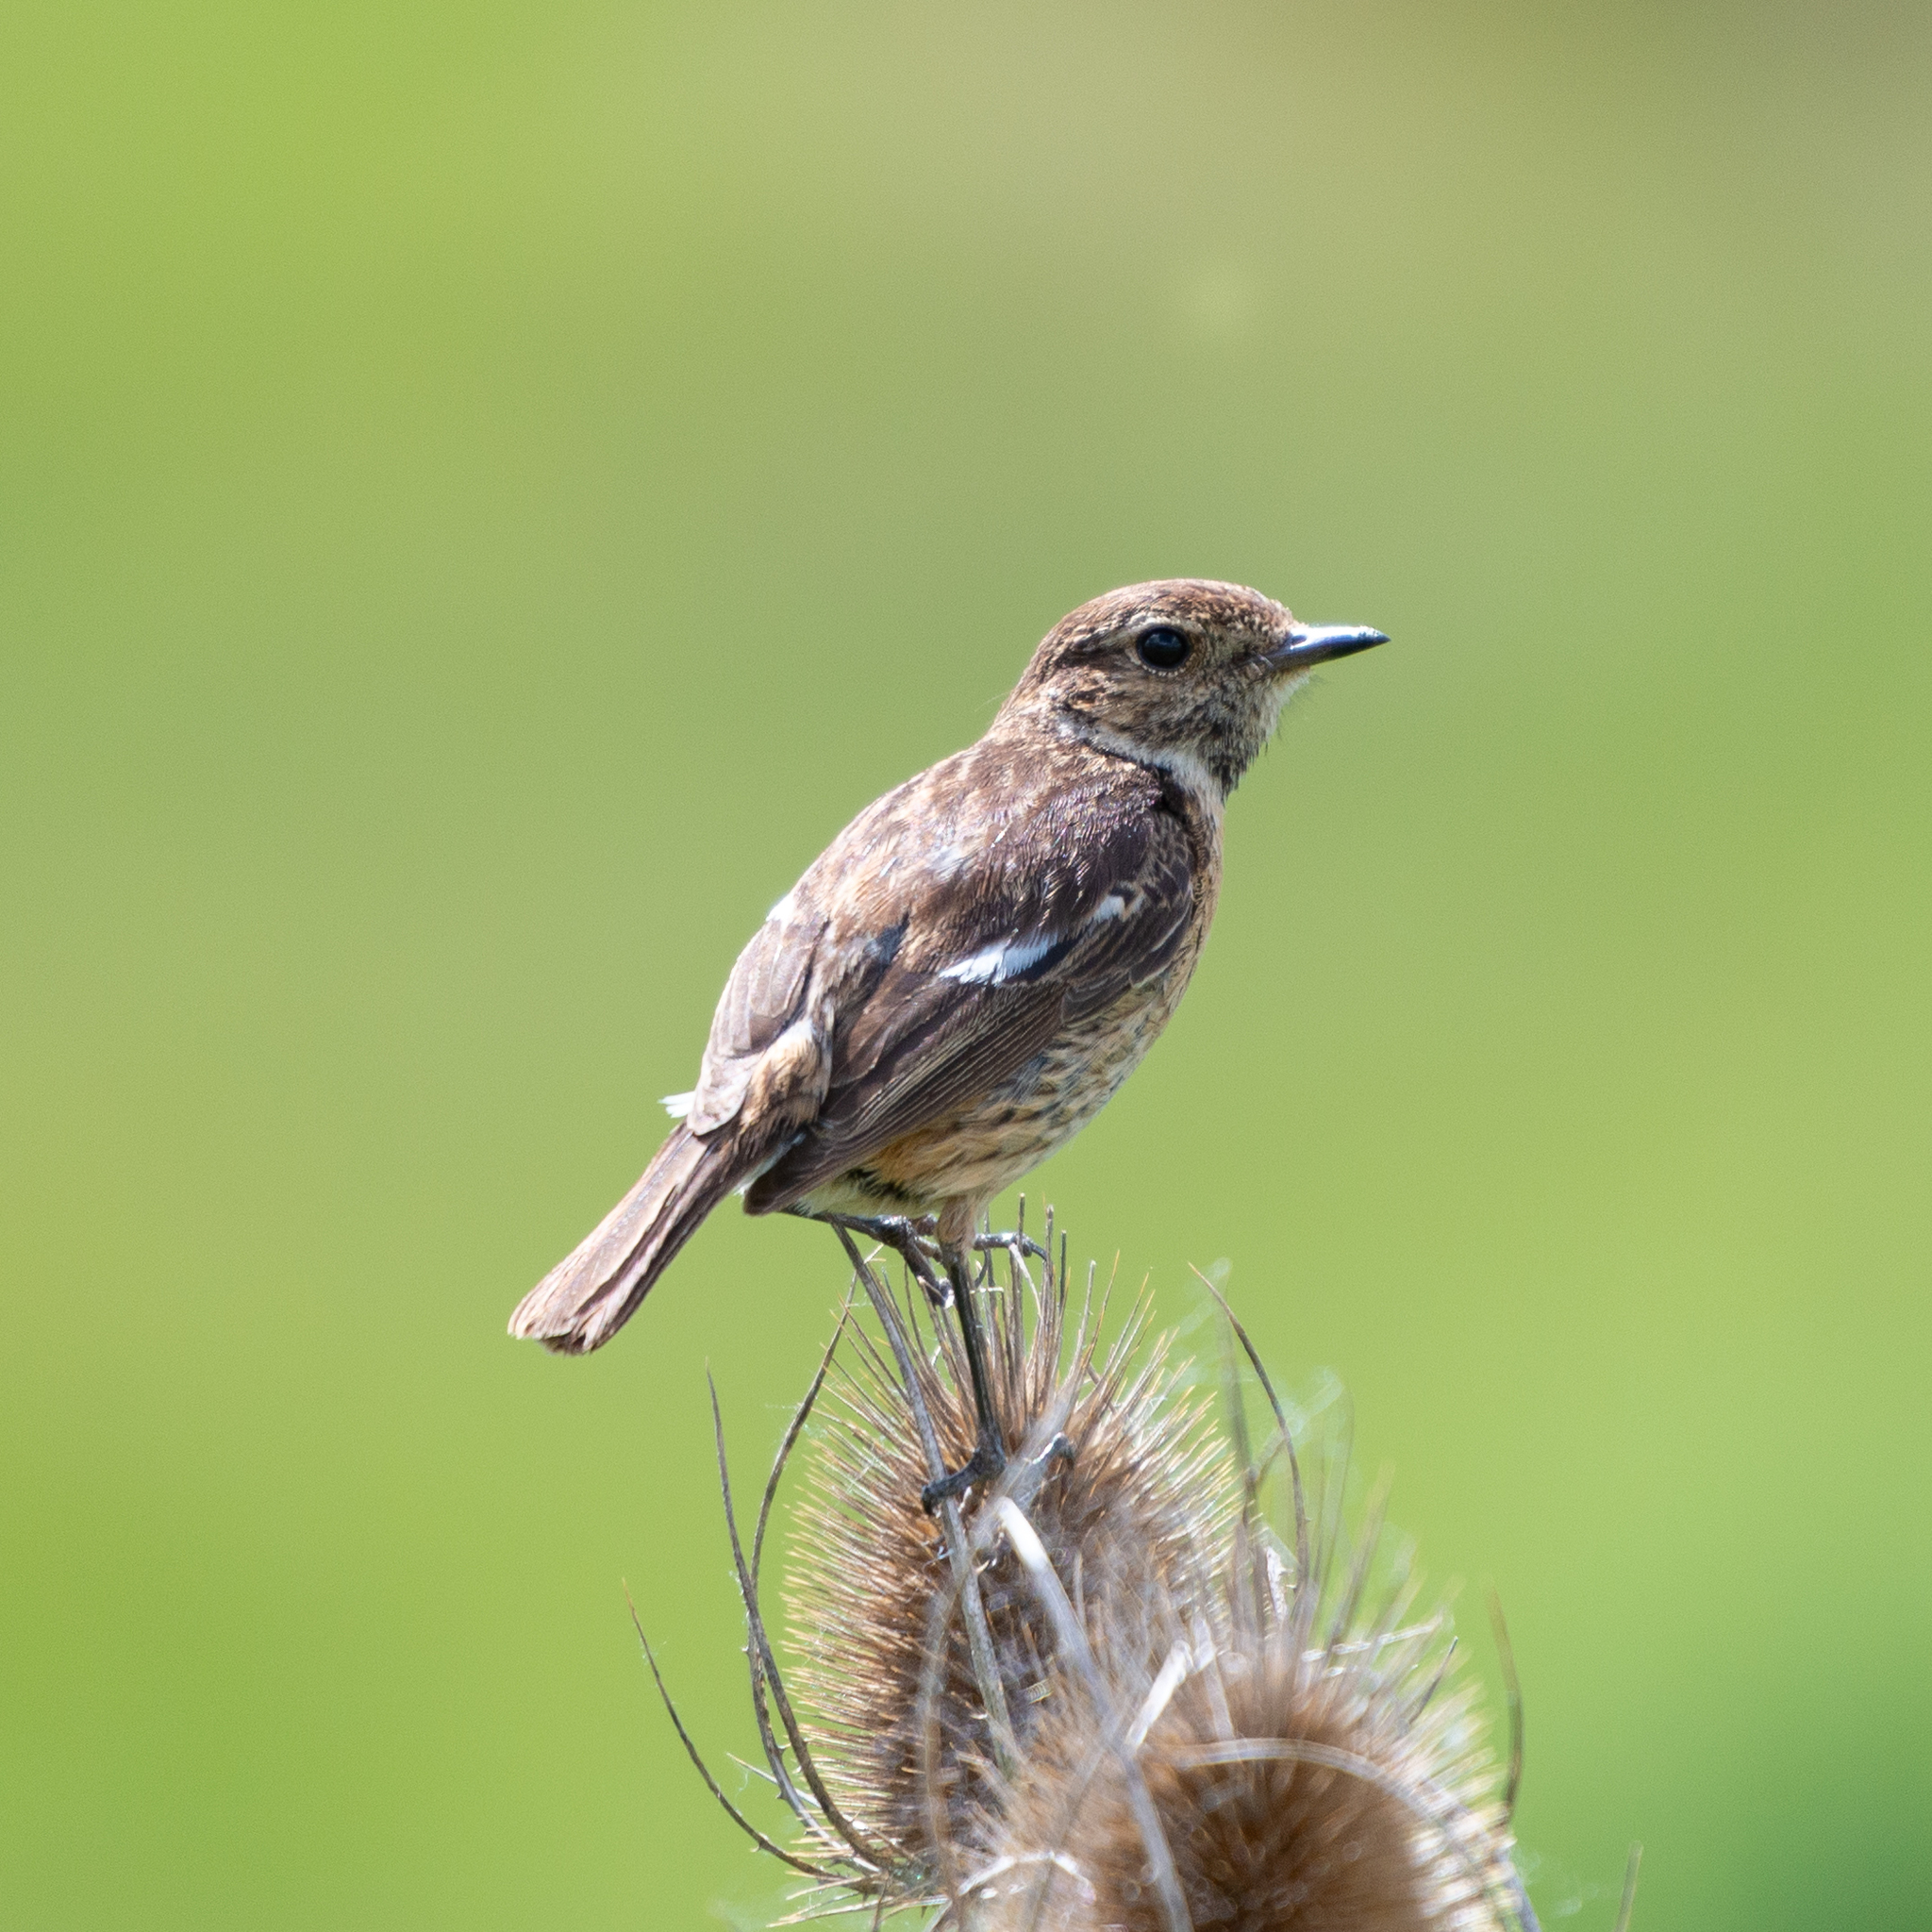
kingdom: Animalia
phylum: Chordata
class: Aves
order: Passeriformes
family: Muscicapidae
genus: Saxicola
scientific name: Saxicola rubicola
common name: European stonechat
